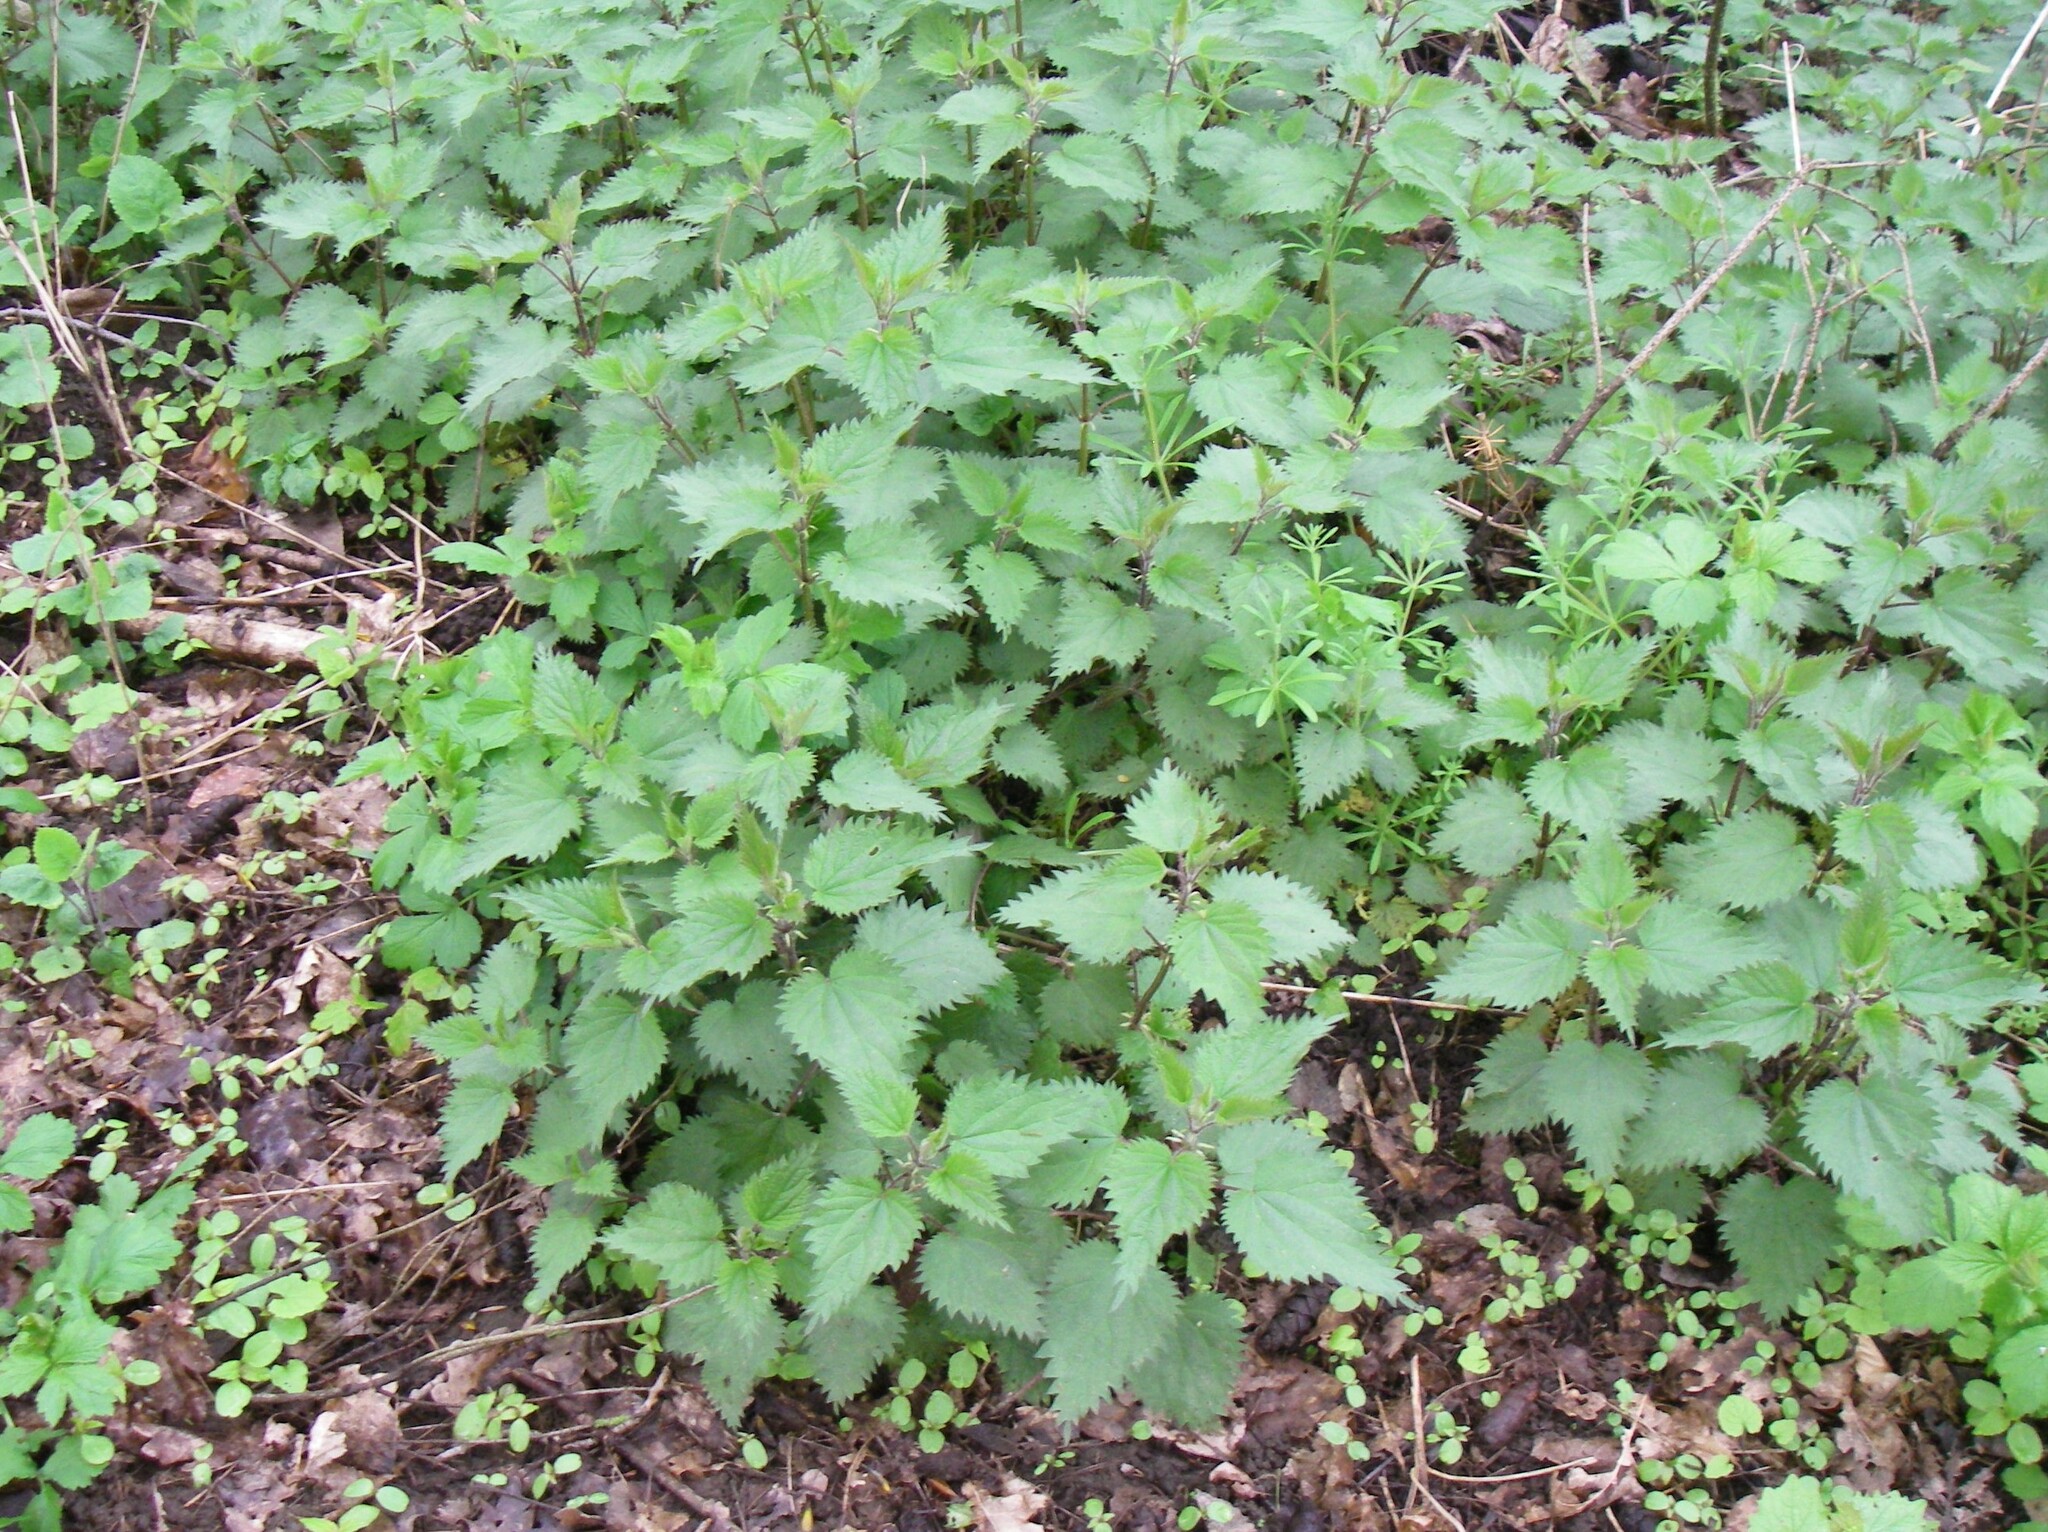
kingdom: Plantae
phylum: Tracheophyta
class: Magnoliopsida
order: Rosales
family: Urticaceae
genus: Urtica
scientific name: Urtica dioica
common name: Common nettle
